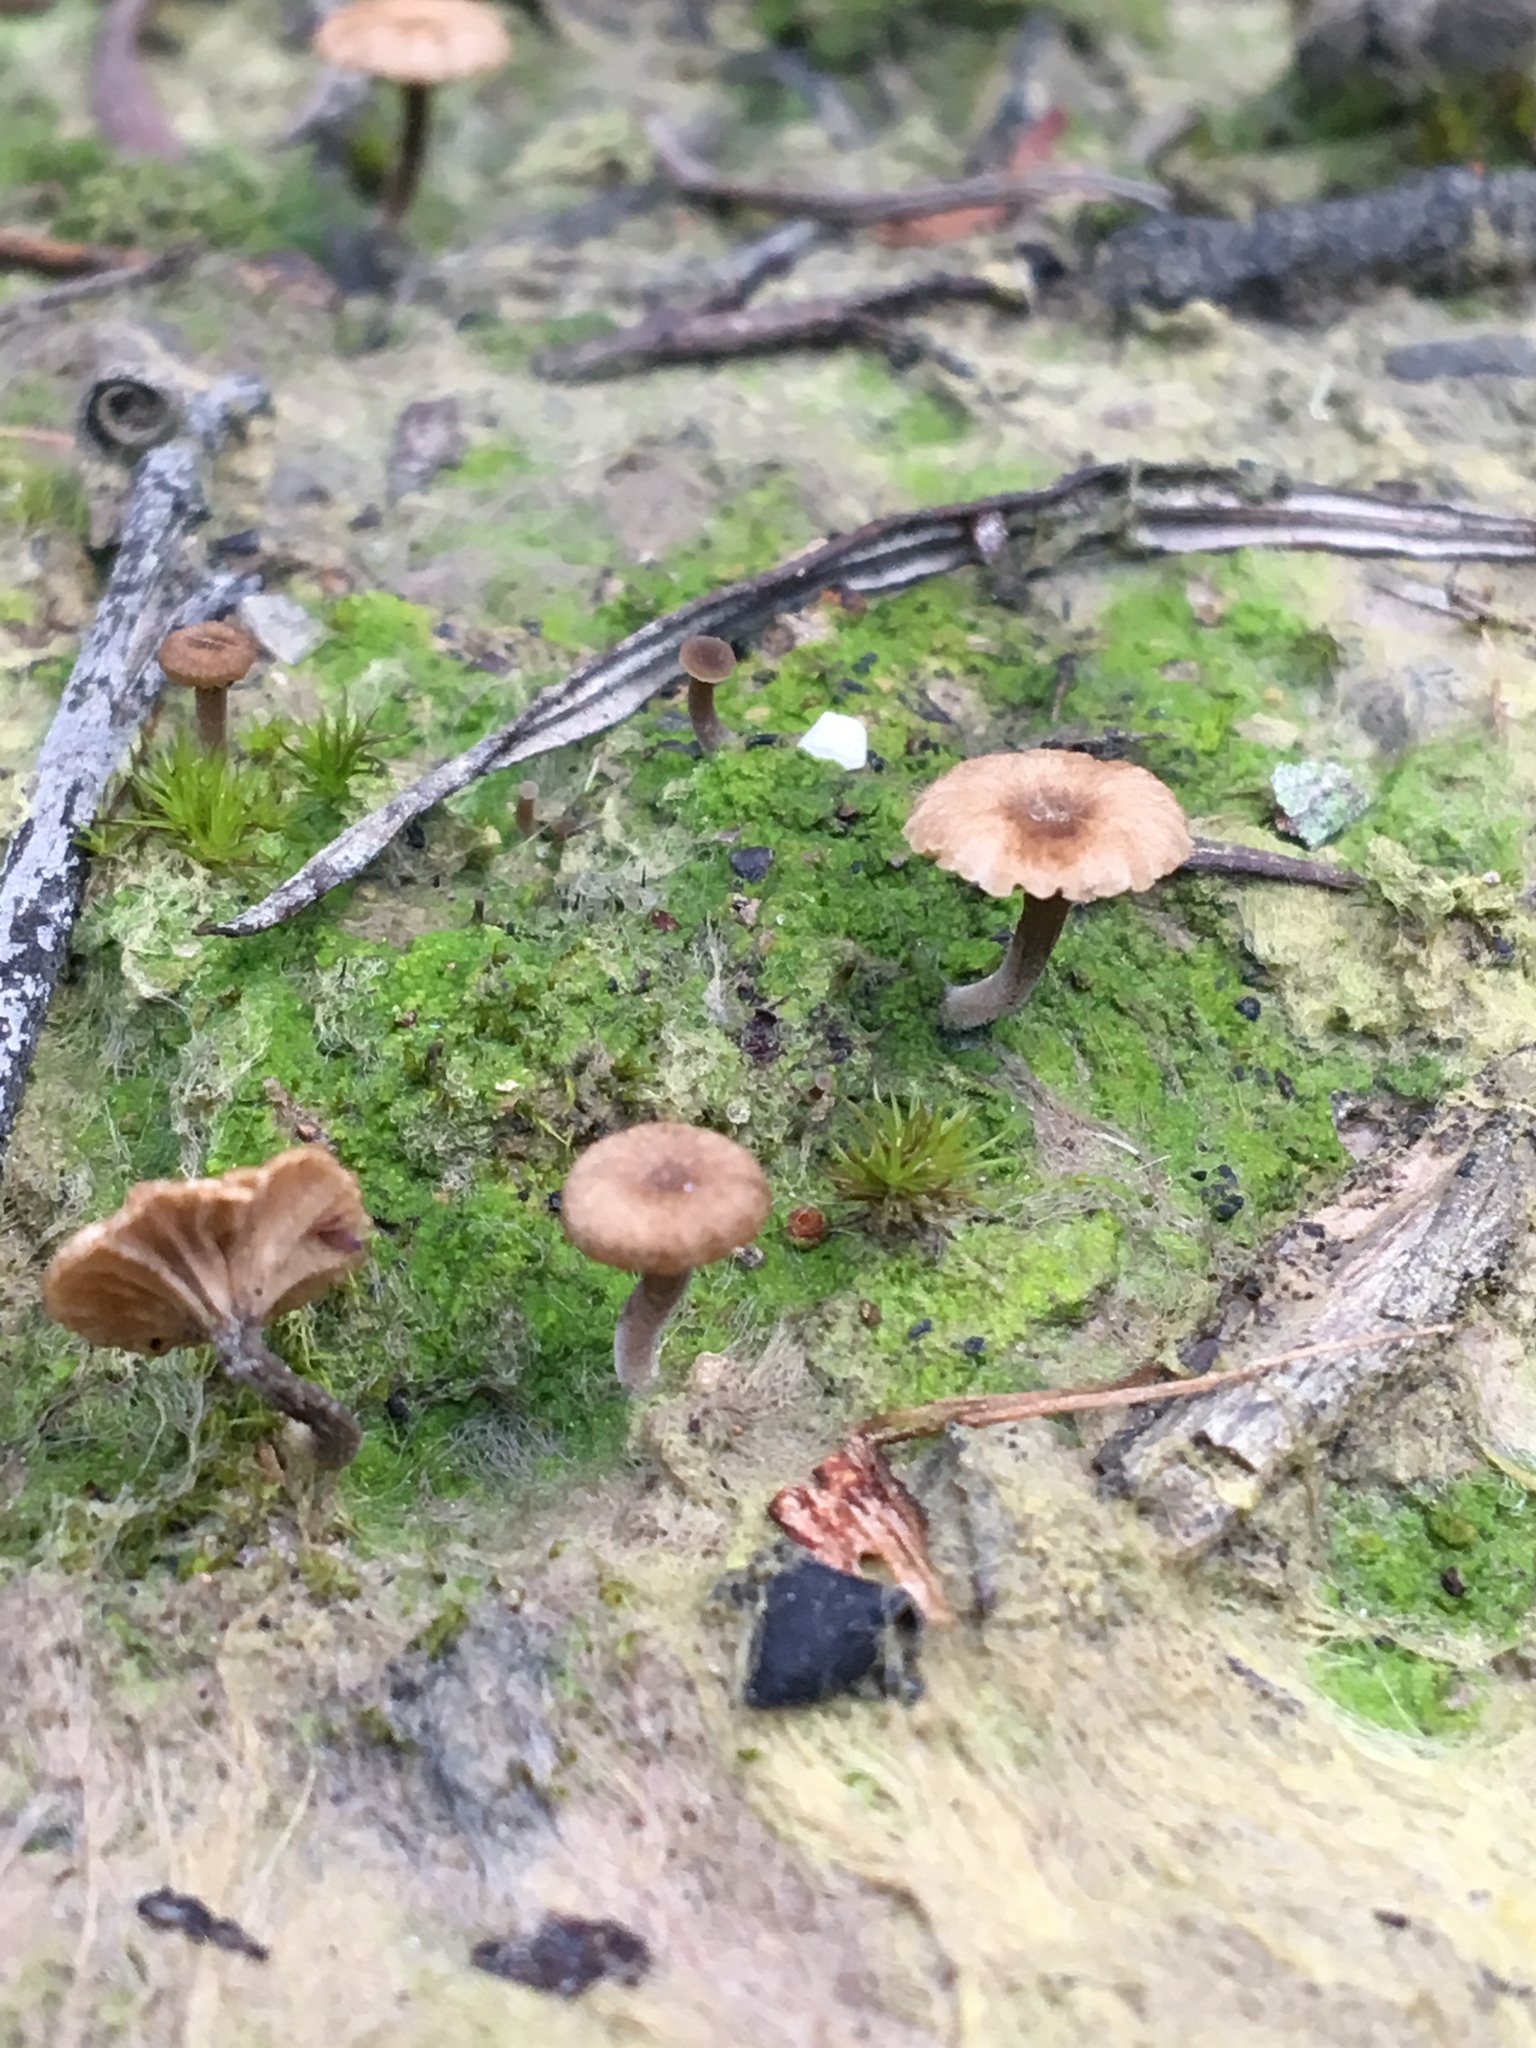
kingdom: Fungi
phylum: Basidiomycota
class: Agaricomycetes
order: Agaricales
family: Hygrophoraceae
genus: Lichenomphalia
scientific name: Lichenomphalia
